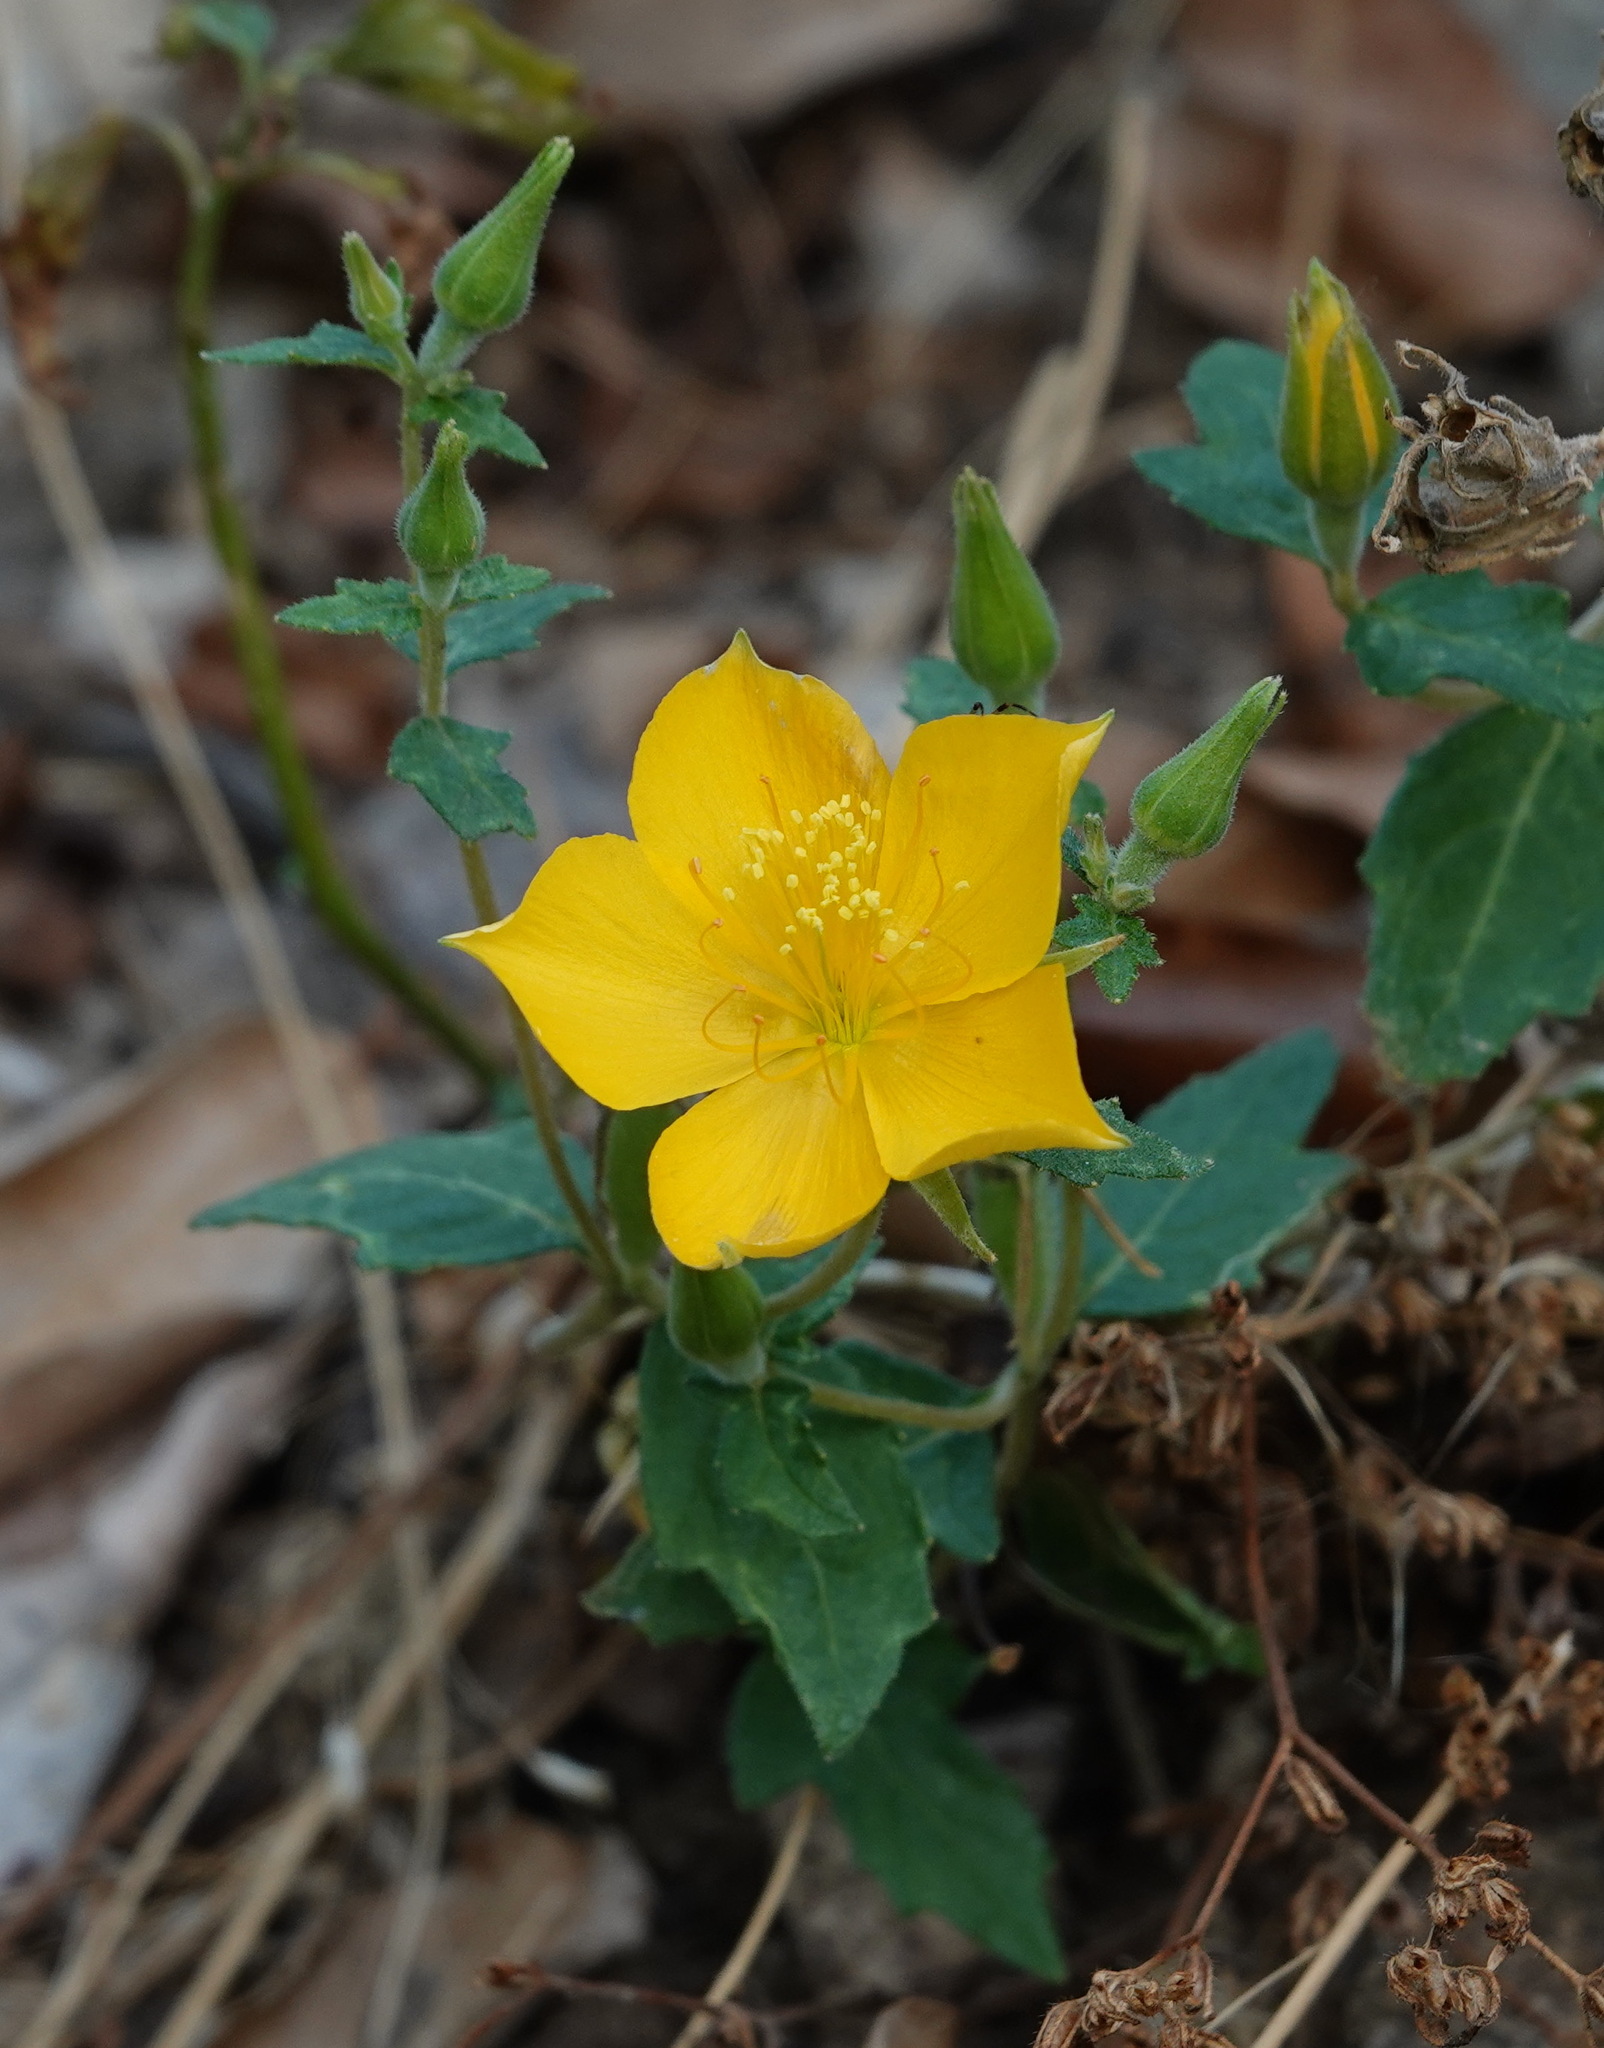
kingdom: Plantae
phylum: Tracheophyta
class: Magnoliopsida
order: Cornales
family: Loasaceae
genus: Mentzelia
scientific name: Mentzelia scabra
